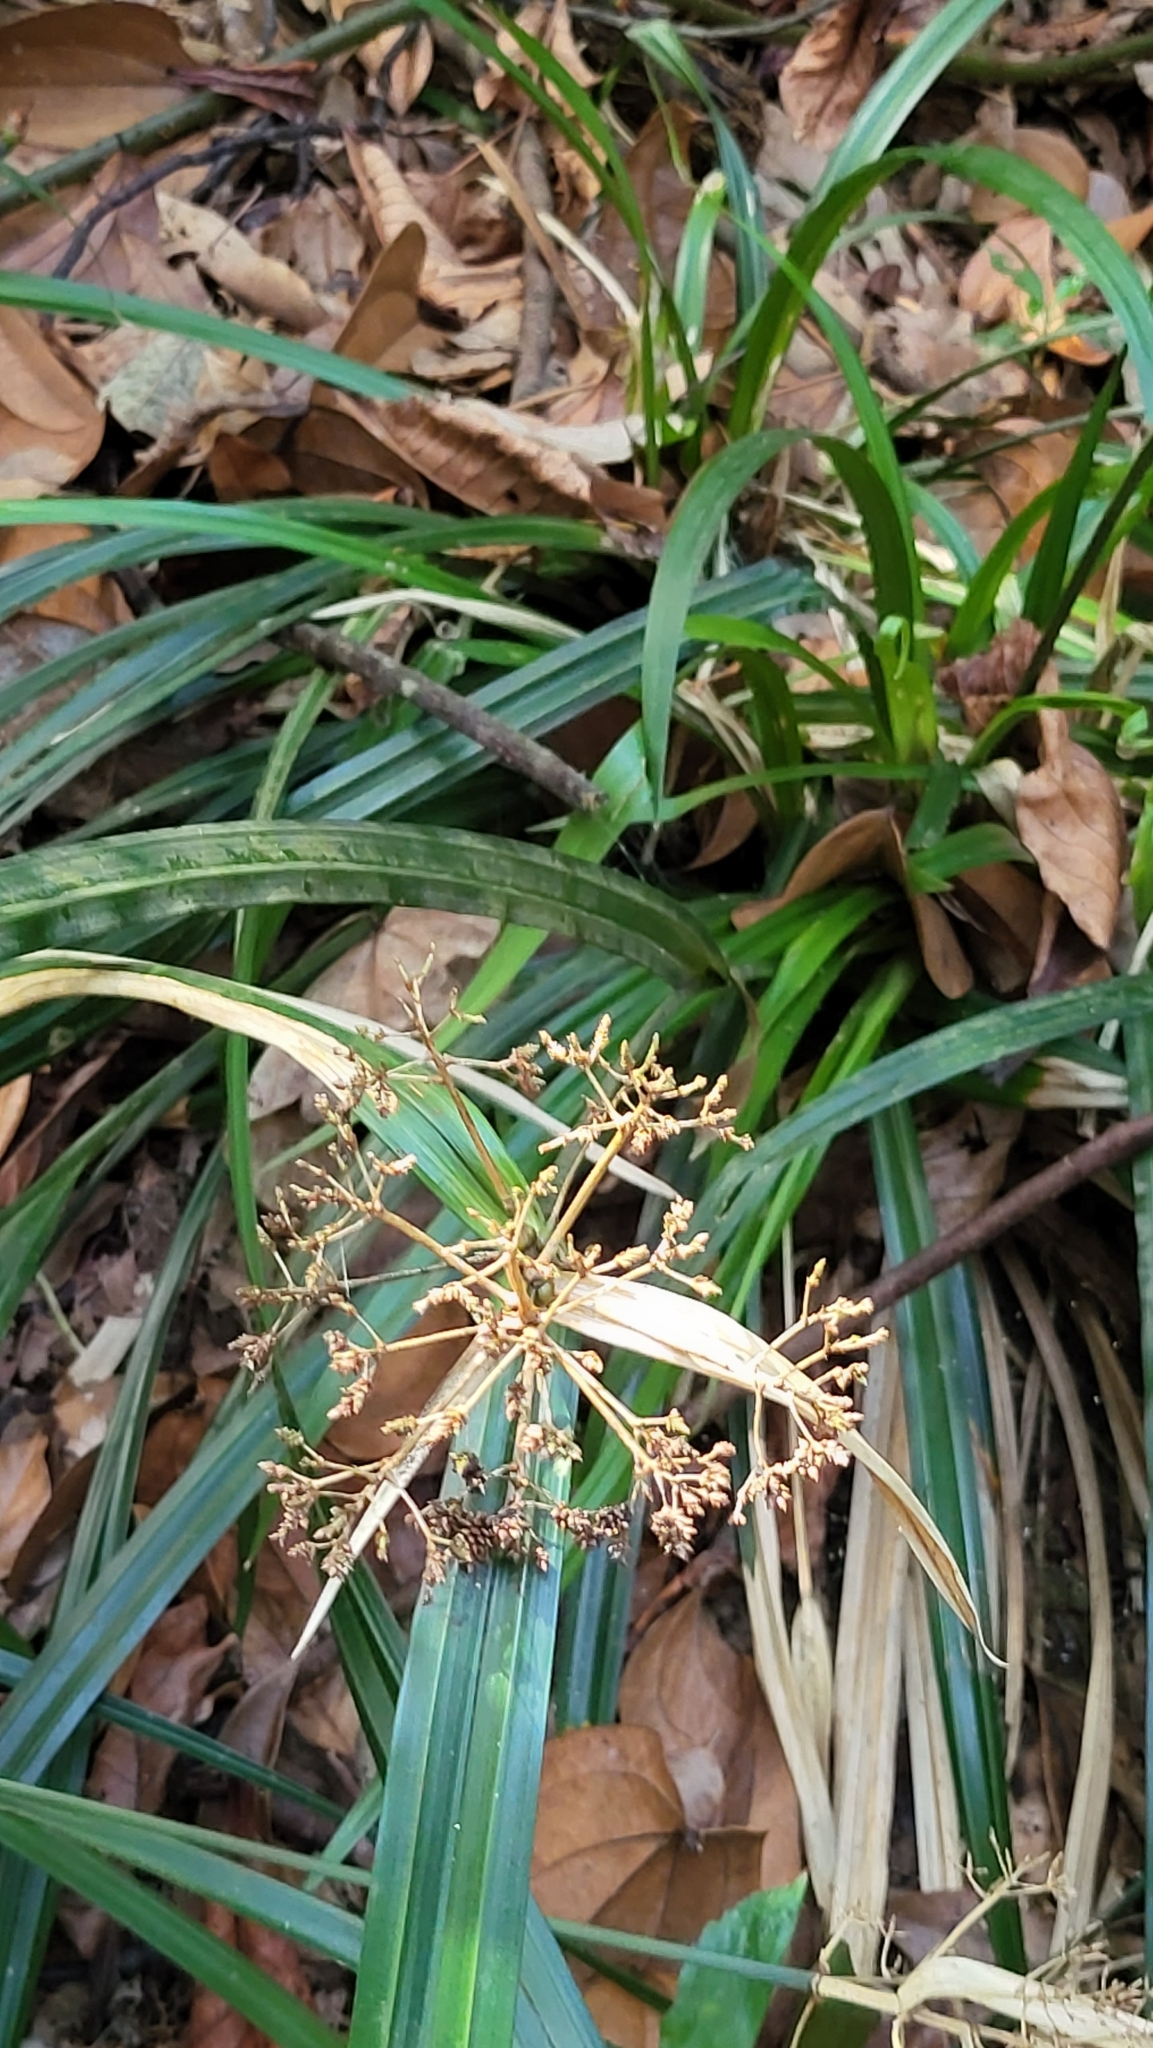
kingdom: Plantae
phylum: Tracheophyta
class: Liliopsida
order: Poales
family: Cyperaceae
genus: Hypolytrum
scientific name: Hypolytrum nemorum
